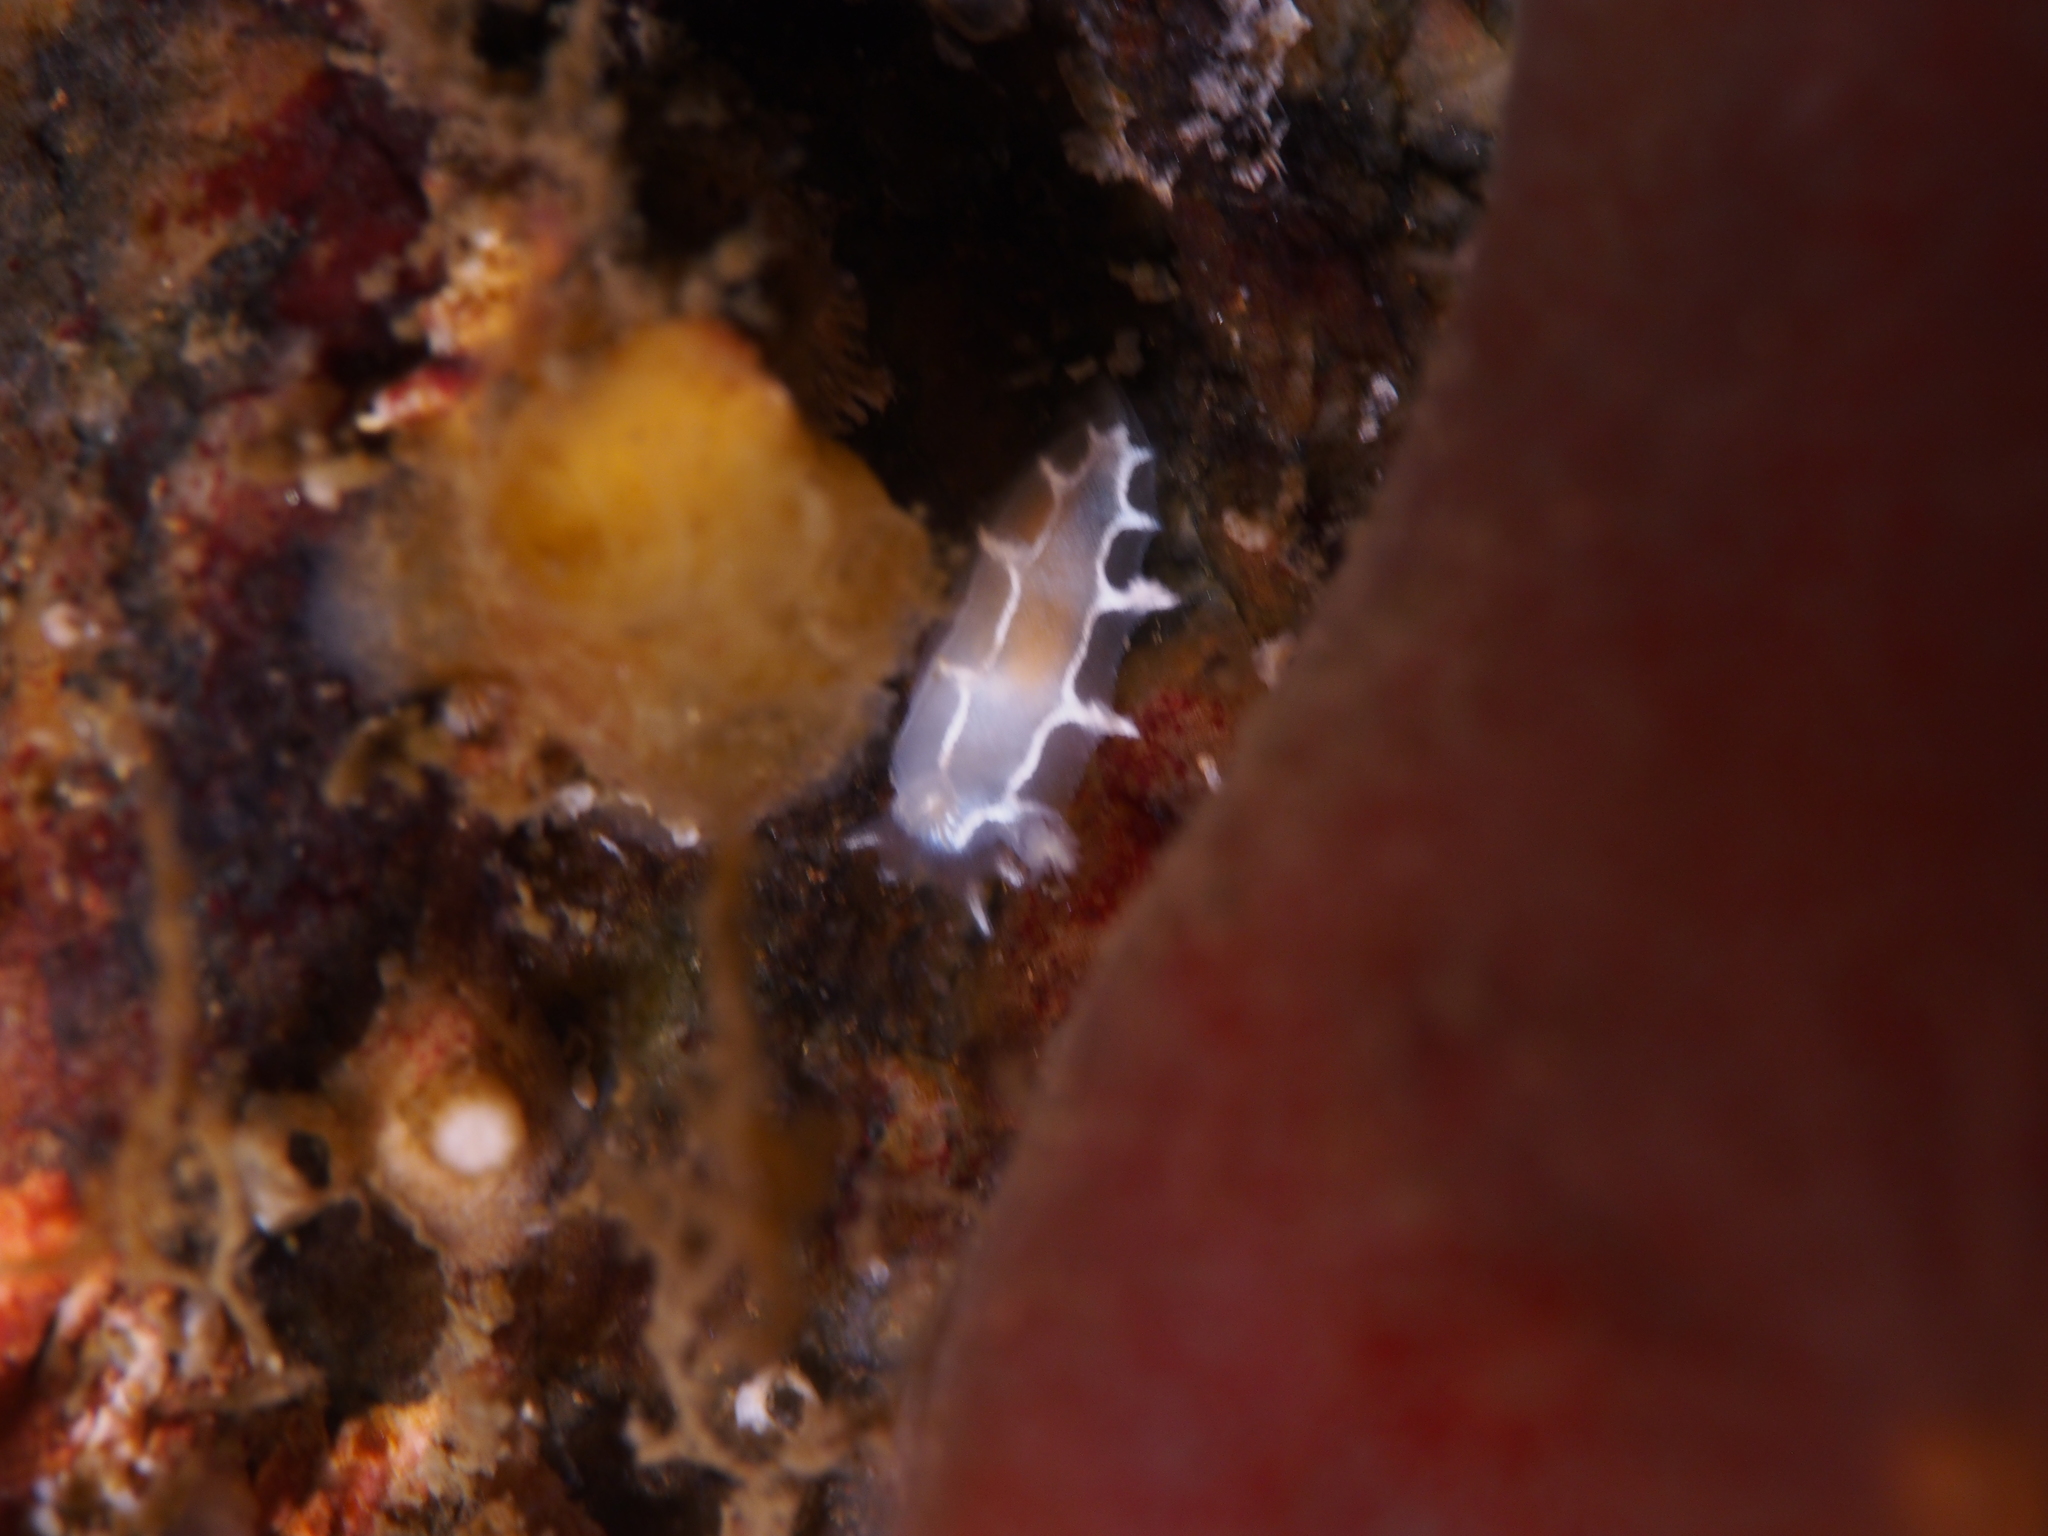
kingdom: Animalia
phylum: Mollusca
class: Gastropoda
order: Nudibranchia
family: Tritoniidae
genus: Duvaucelia
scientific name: Duvaucelia lineata
